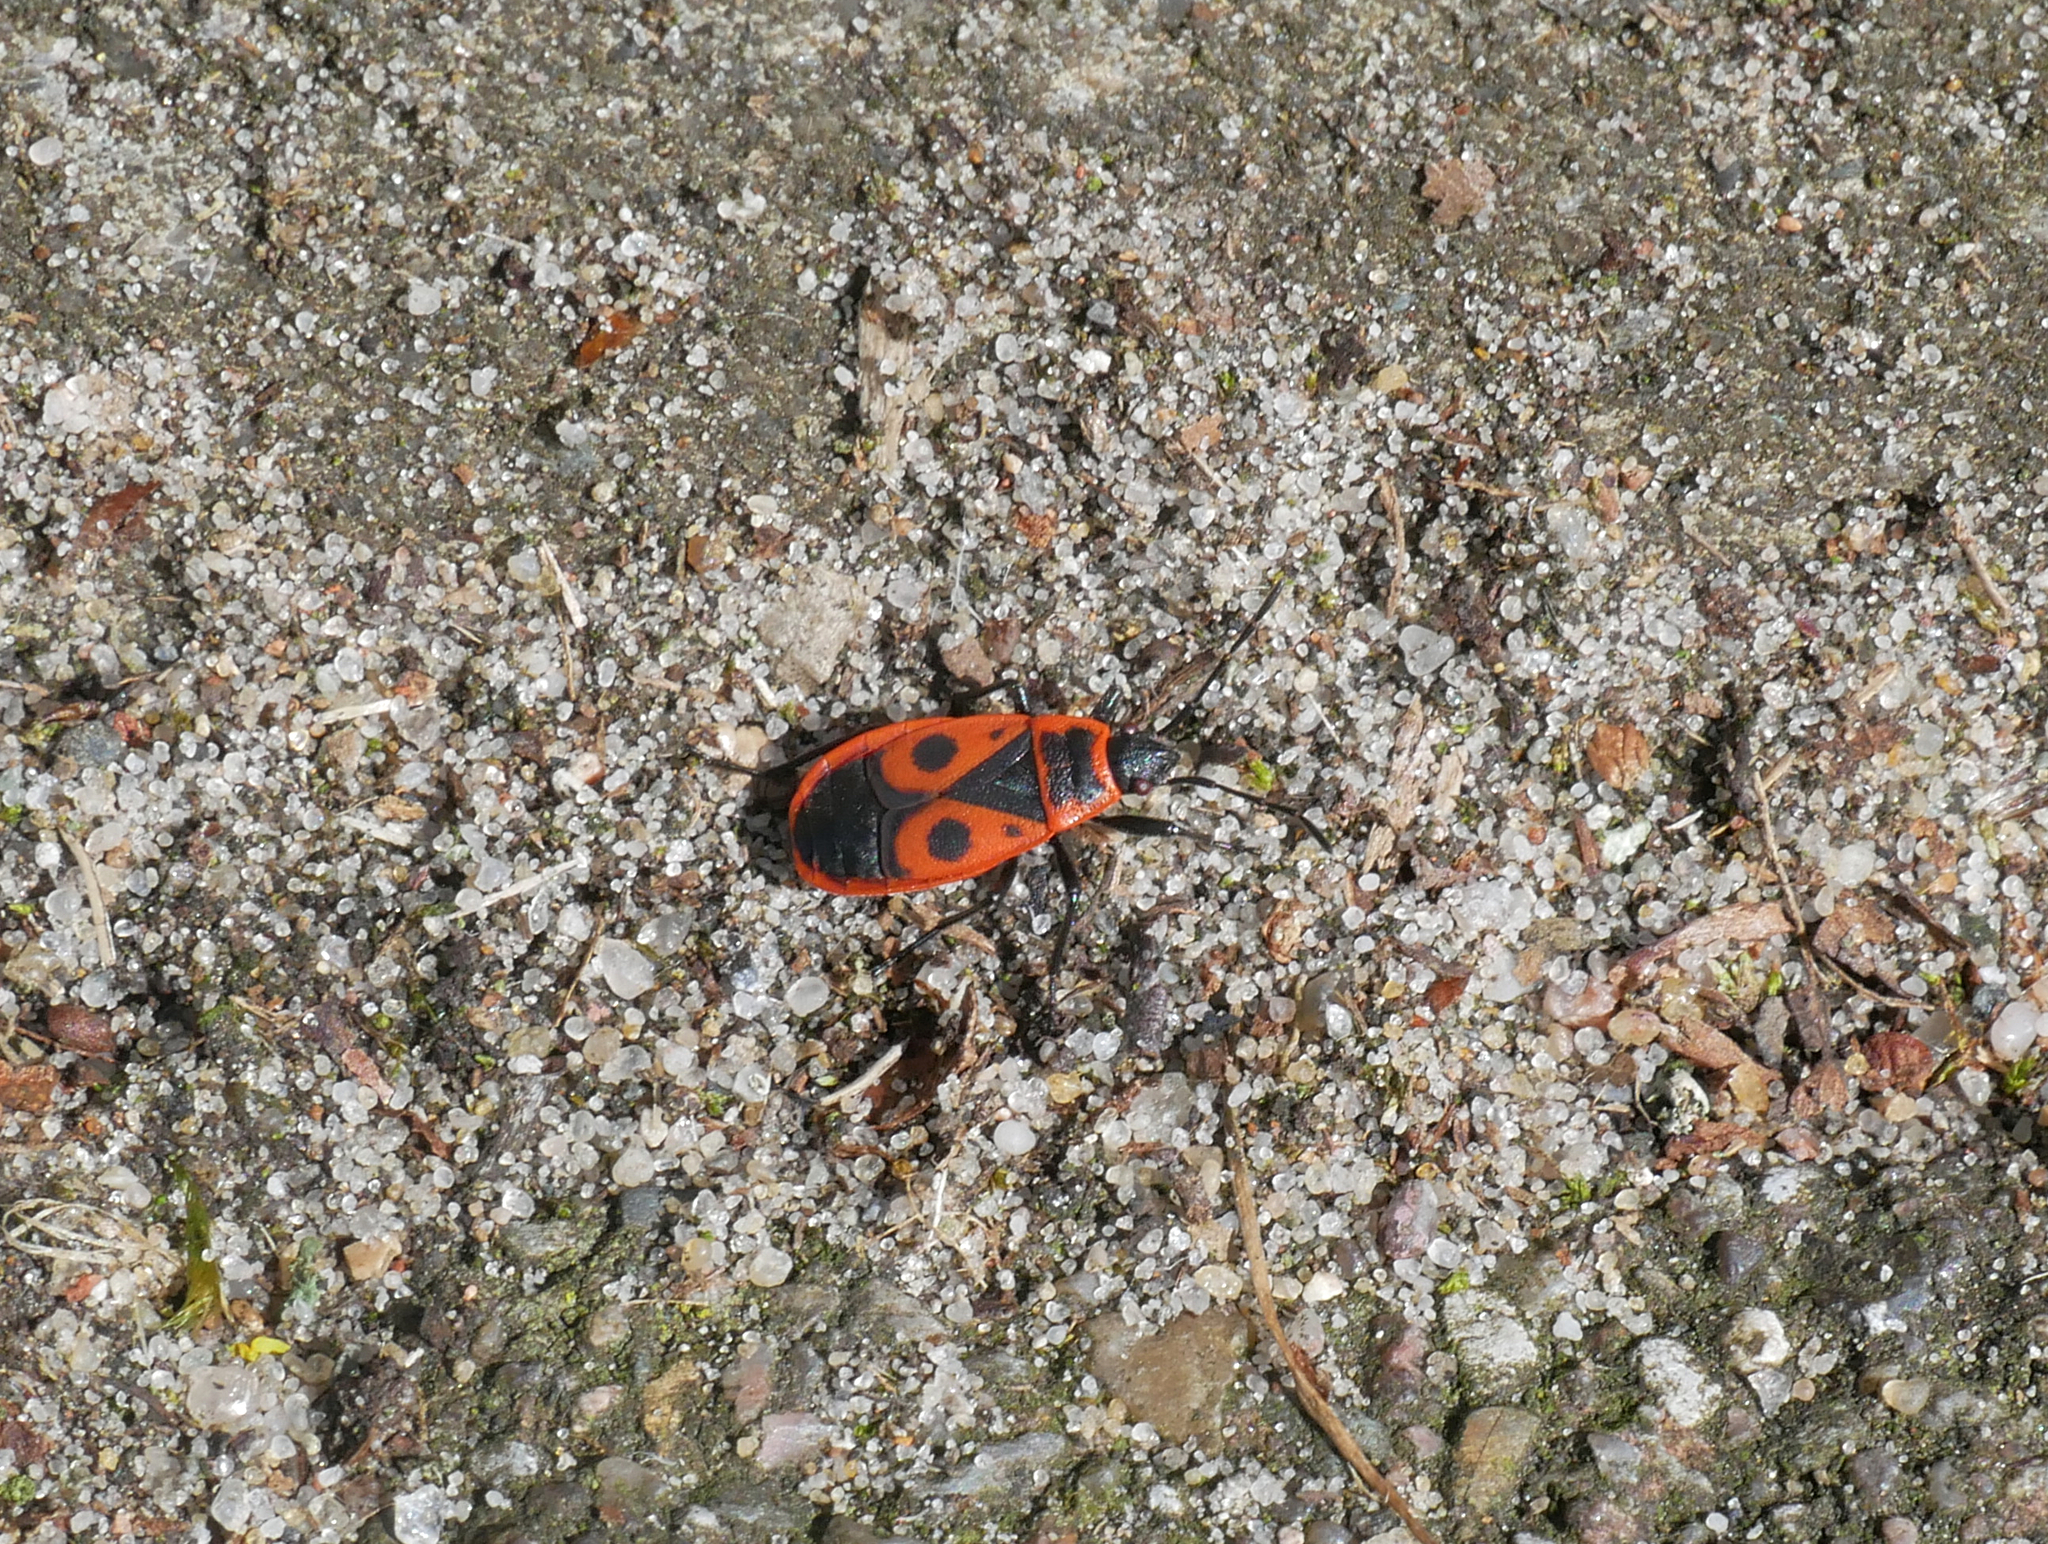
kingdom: Animalia
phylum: Arthropoda
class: Insecta
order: Hemiptera
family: Pyrrhocoridae
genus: Pyrrhocoris
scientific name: Pyrrhocoris apterus
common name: Firebug
